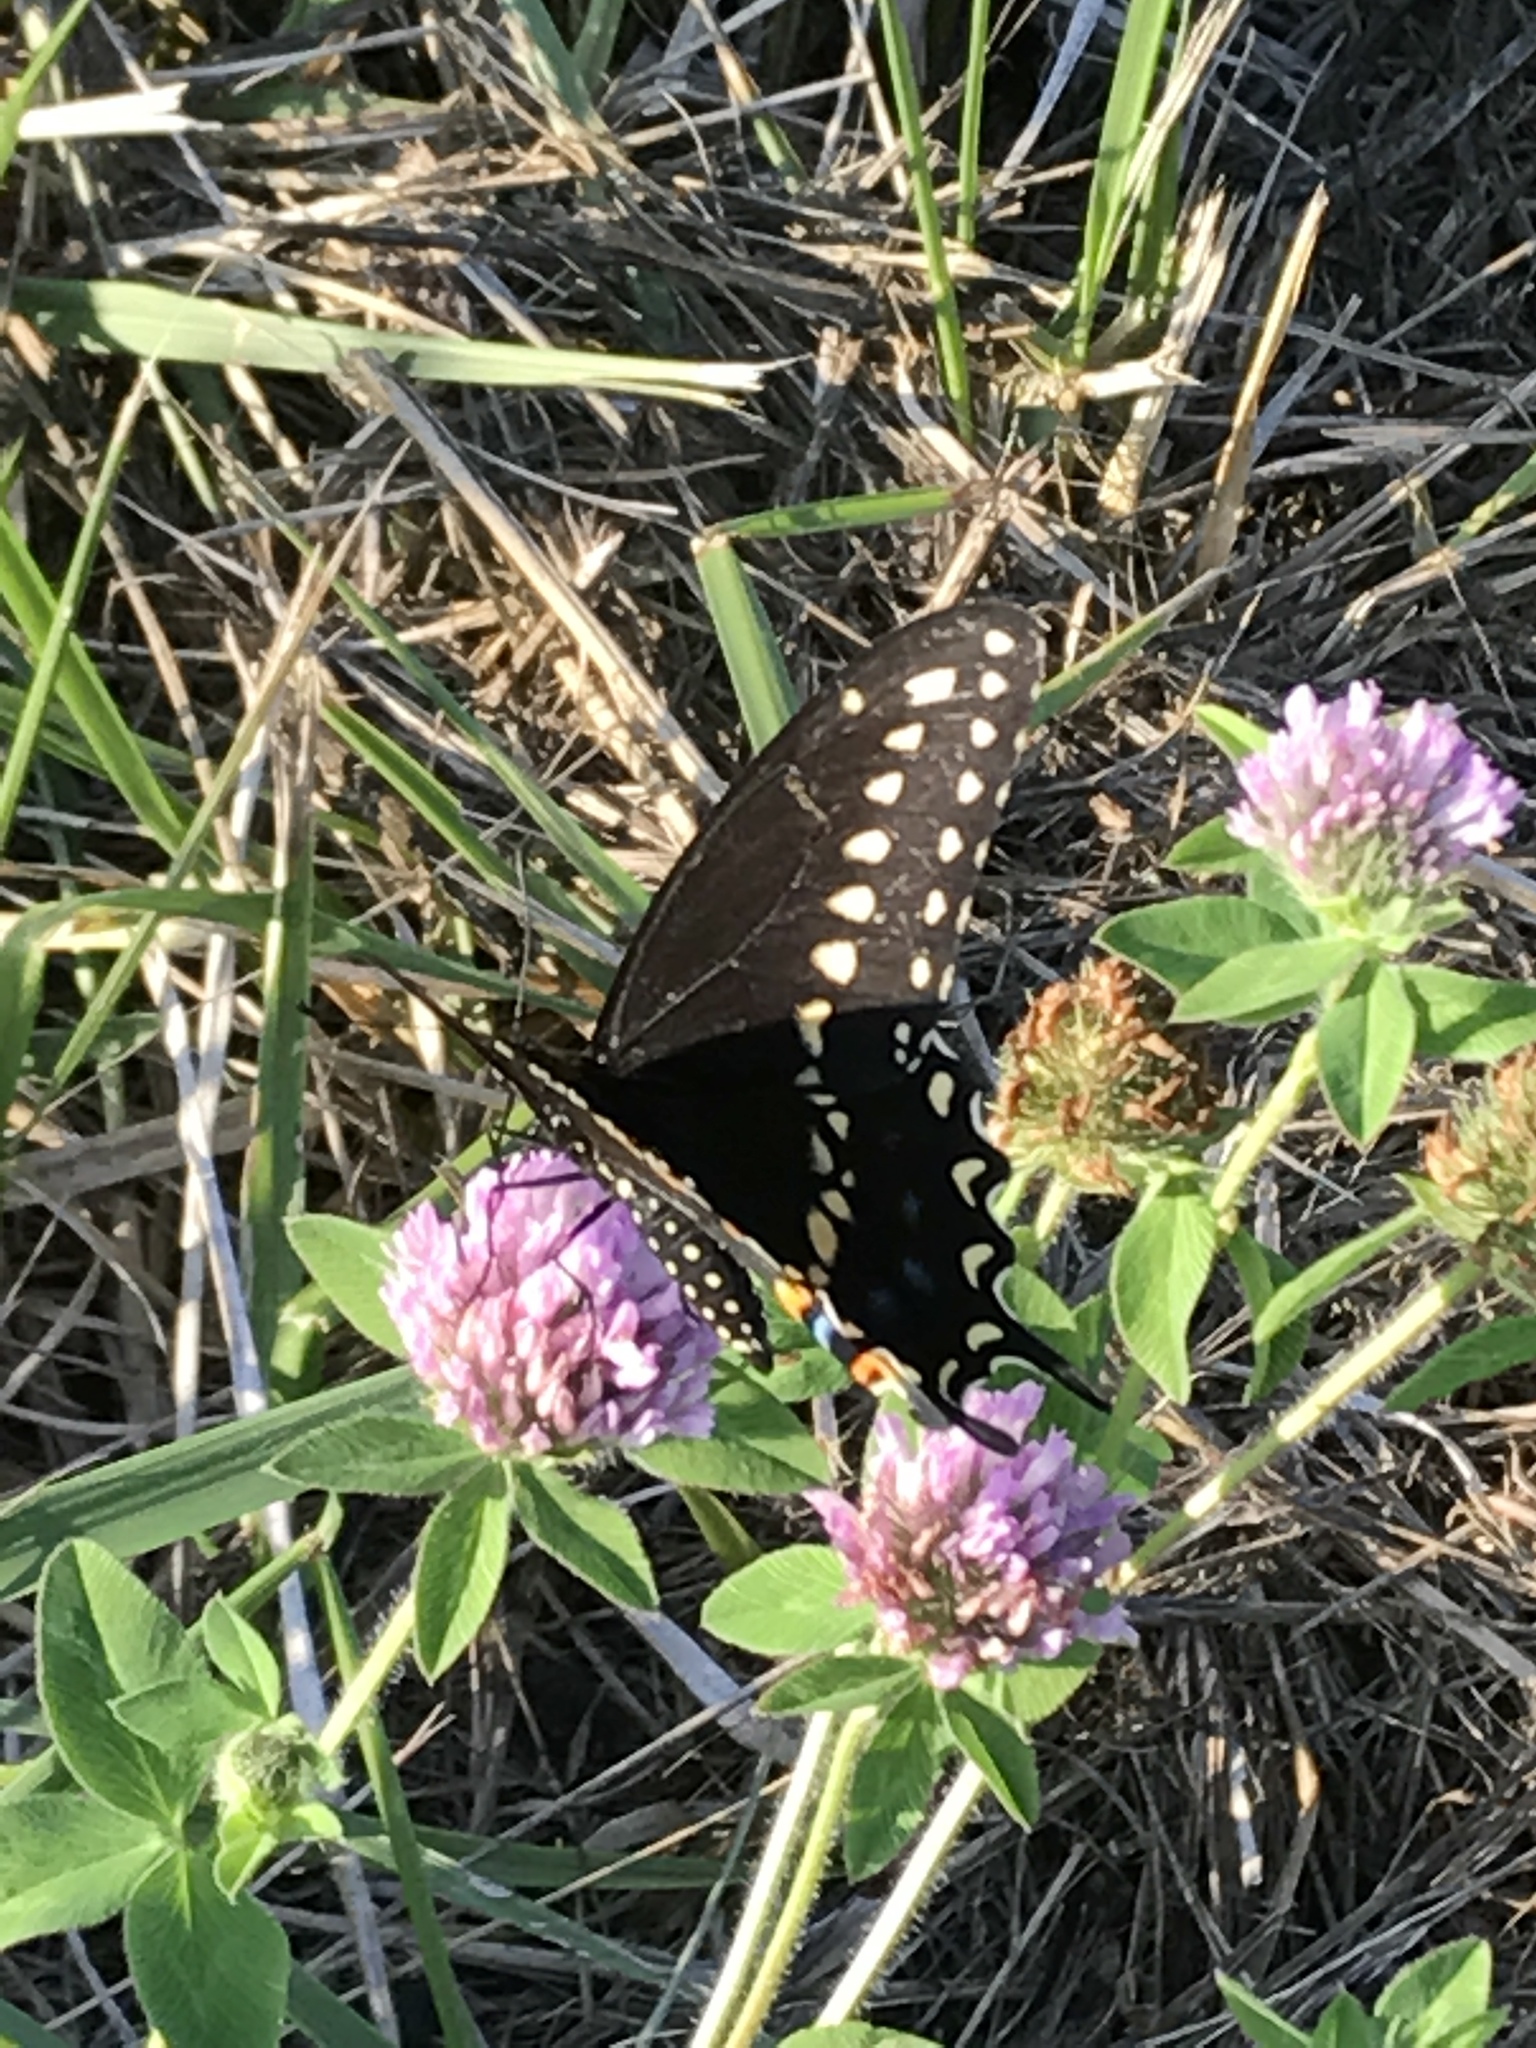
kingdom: Animalia
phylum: Arthropoda
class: Insecta
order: Lepidoptera
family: Papilionidae
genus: Papilio
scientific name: Papilio polyxenes
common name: Black swallowtail
